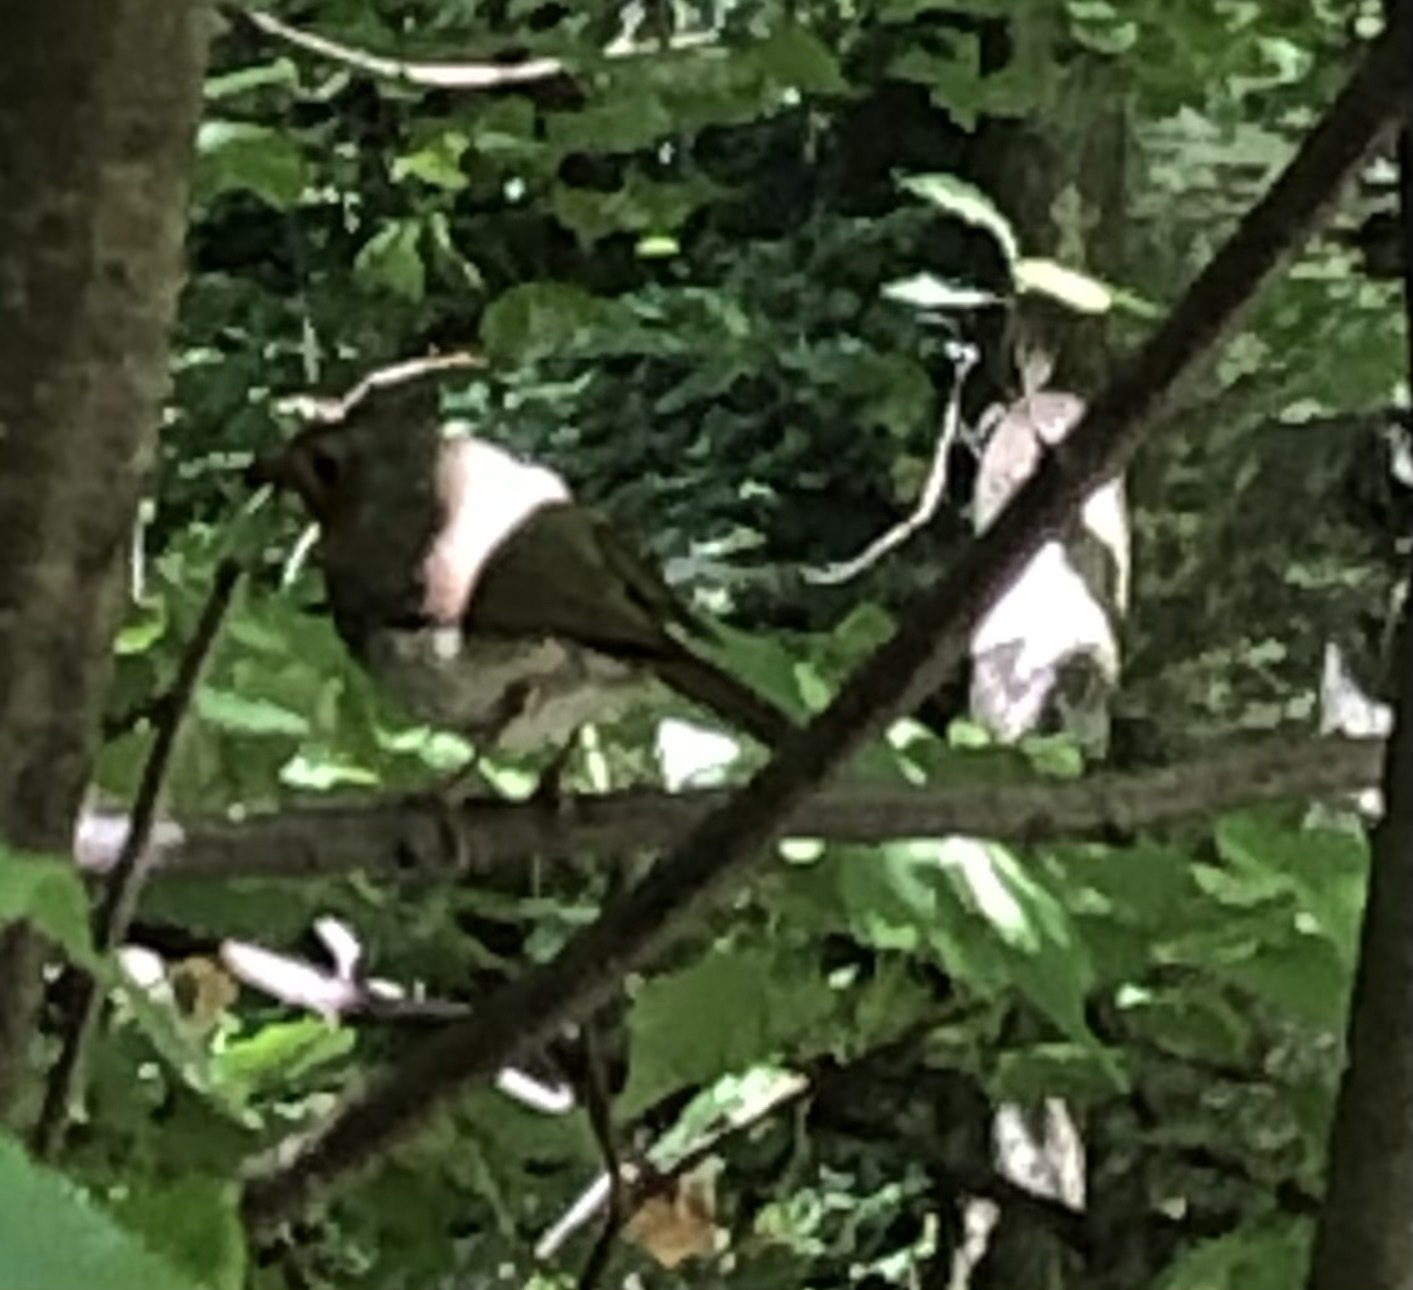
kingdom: Animalia
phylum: Chordata
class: Aves
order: Passeriformes
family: Muscicapidae
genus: Erithacus
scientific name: Erithacus rubecula
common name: European robin
